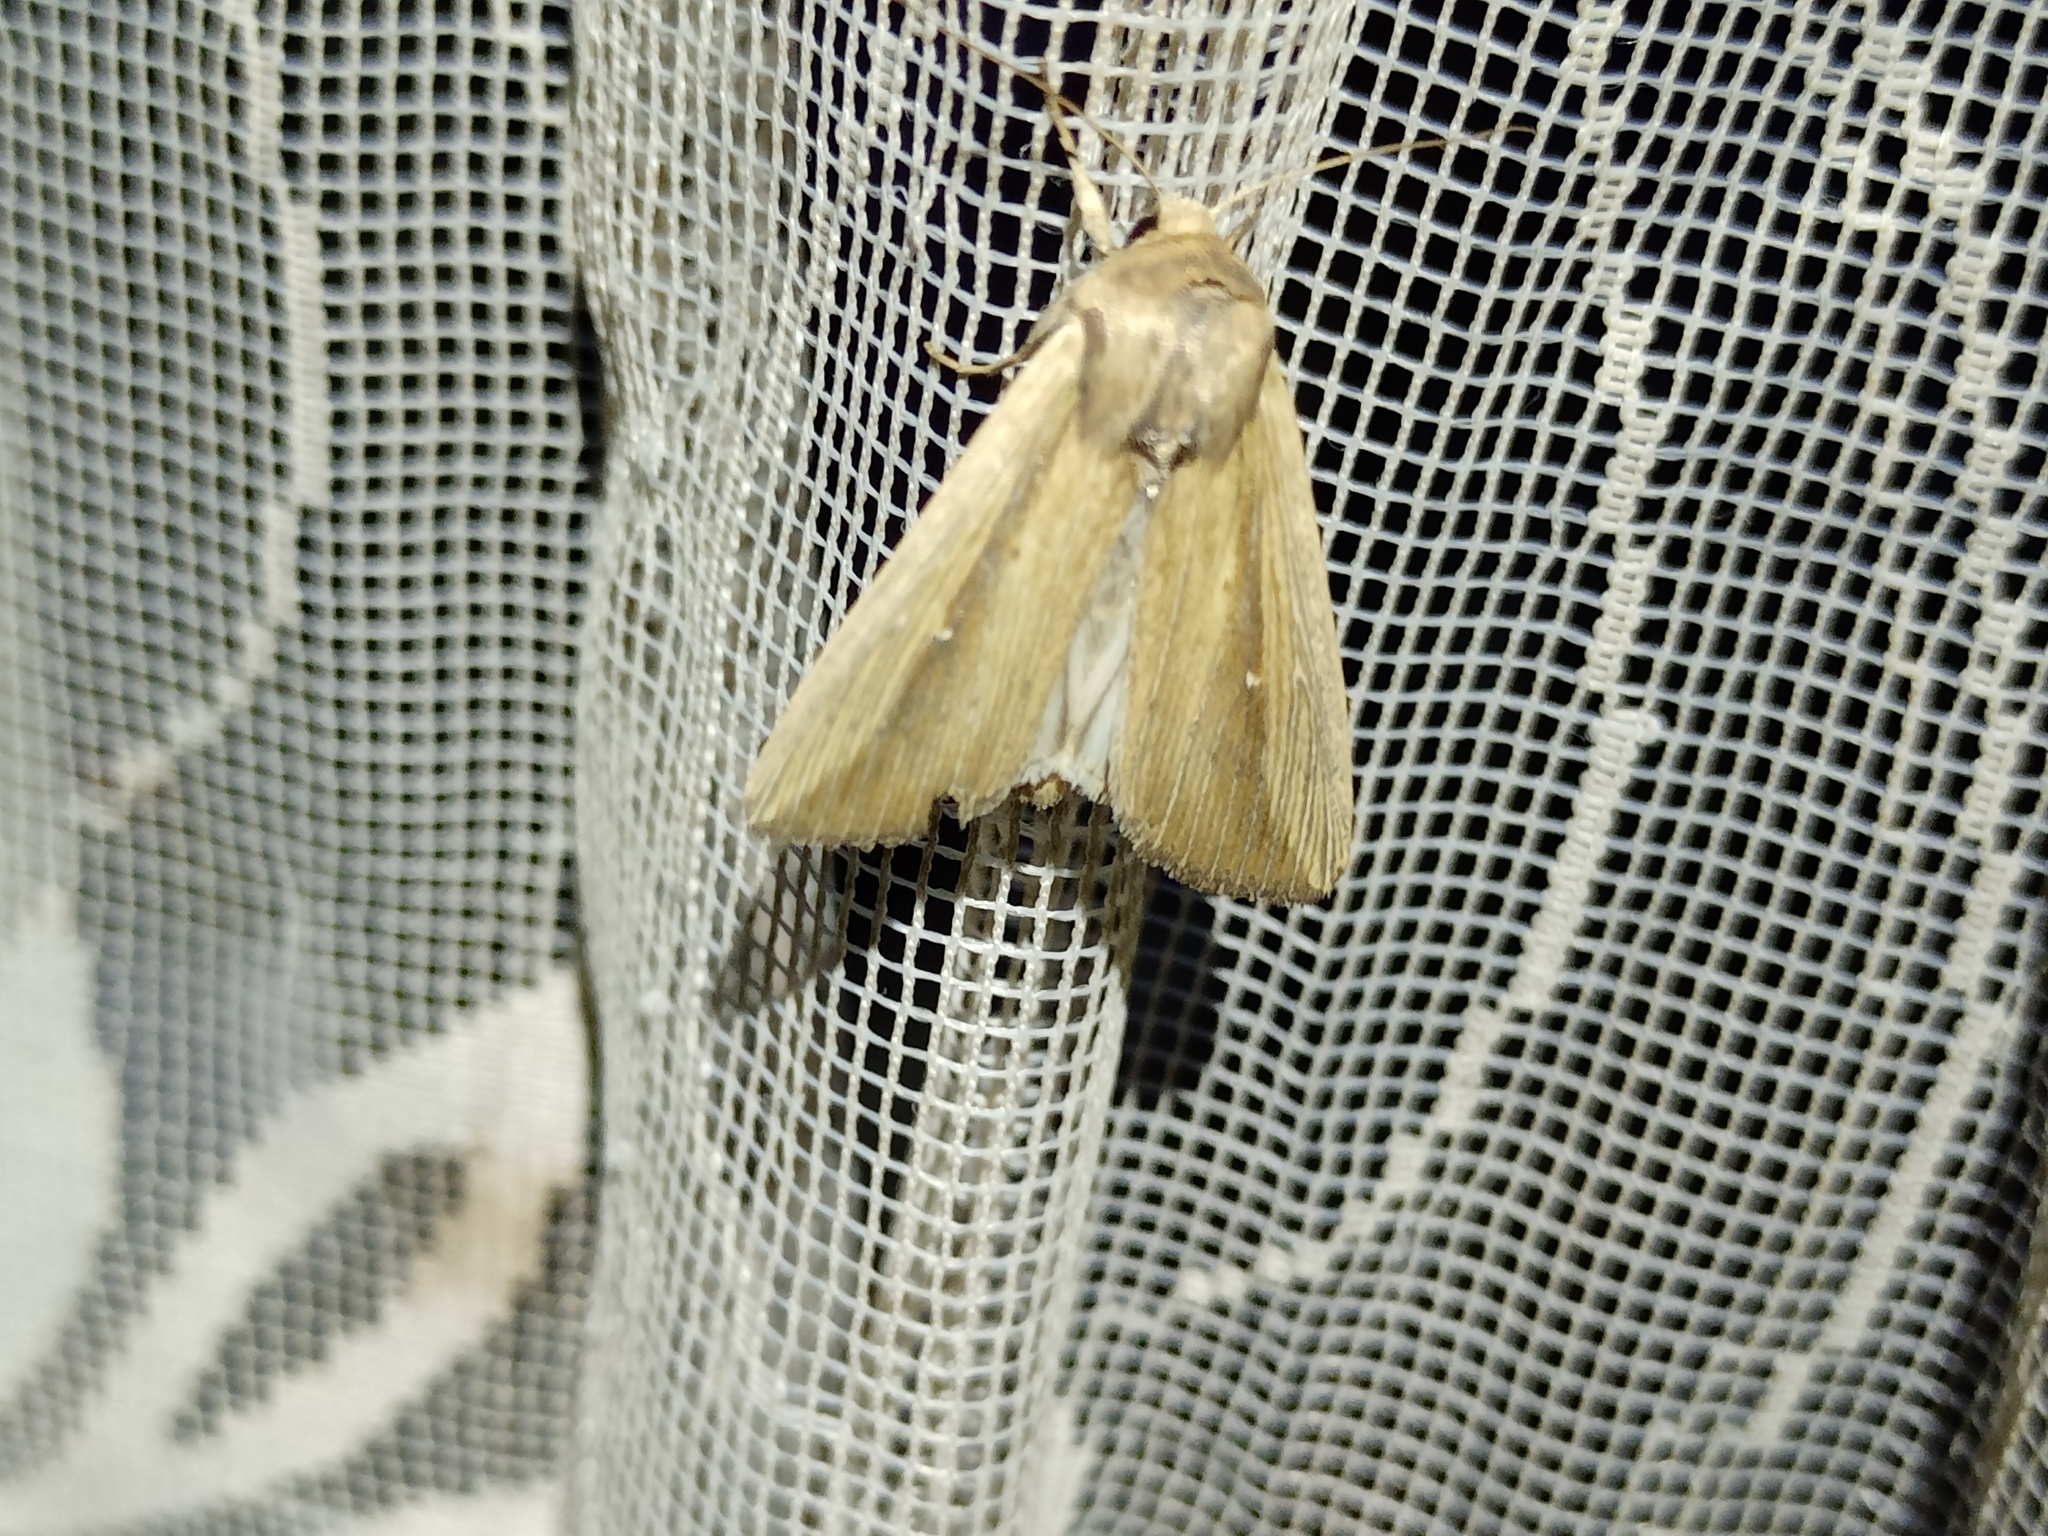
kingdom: Animalia
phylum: Arthropoda
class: Insecta
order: Lepidoptera
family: Noctuidae
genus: Leucania
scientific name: Leucania loreyi
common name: The cosmopolitan
